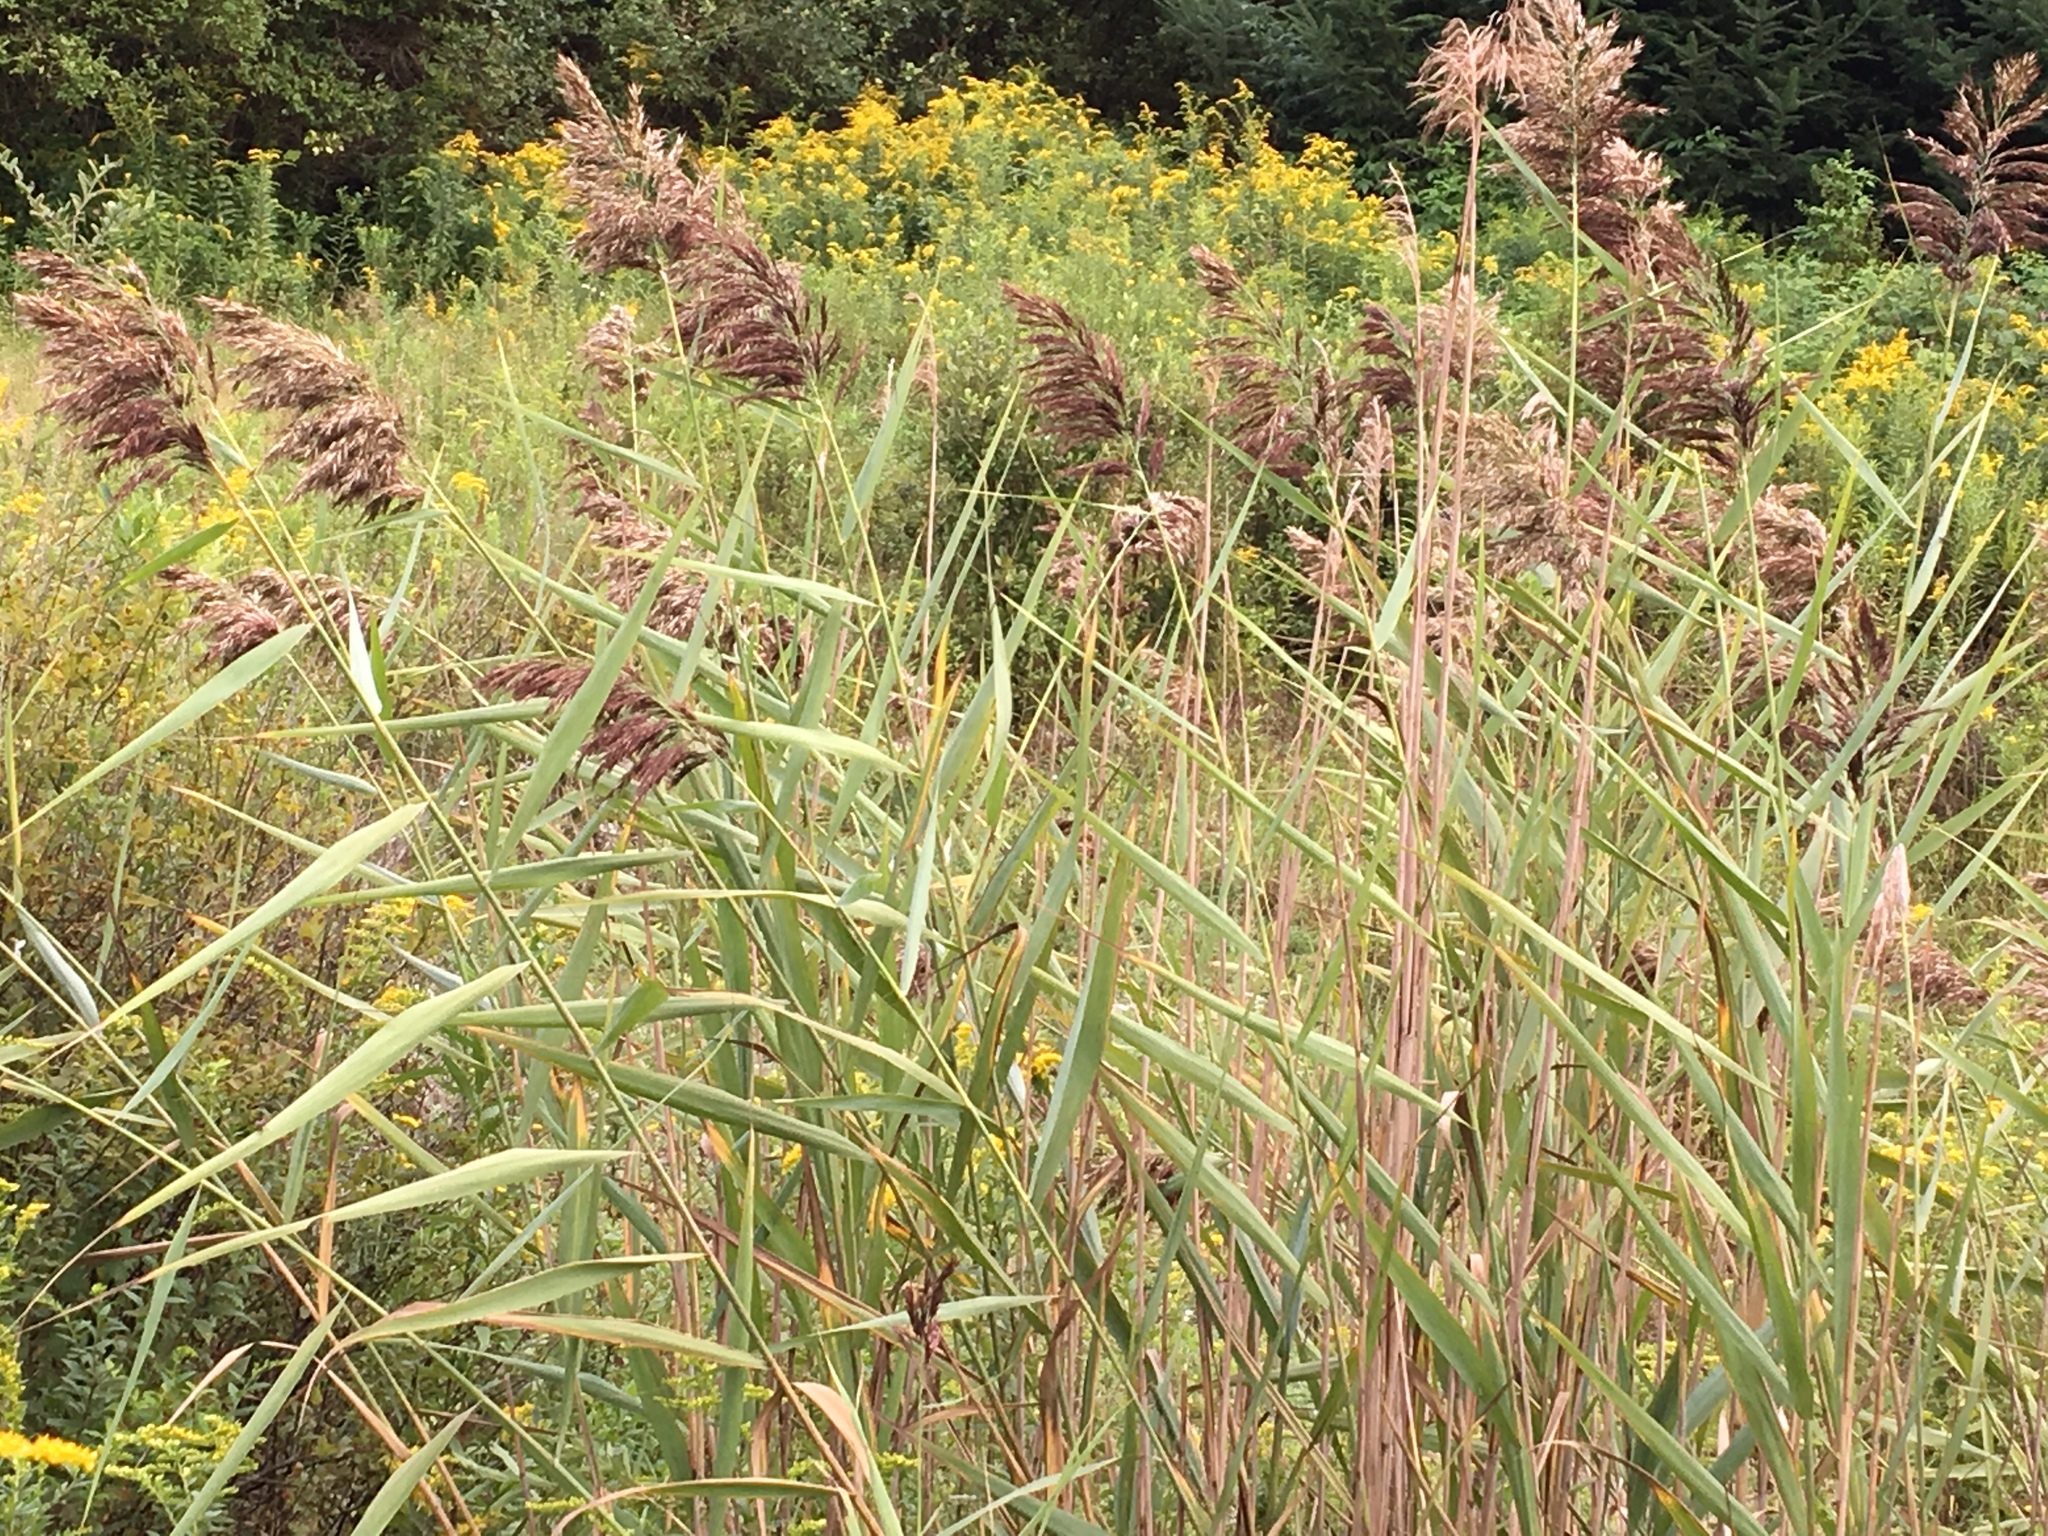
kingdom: Plantae
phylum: Tracheophyta
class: Liliopsida
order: Poales
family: Poaceae
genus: Phragmites
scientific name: Phragmites australis
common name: Common reed
